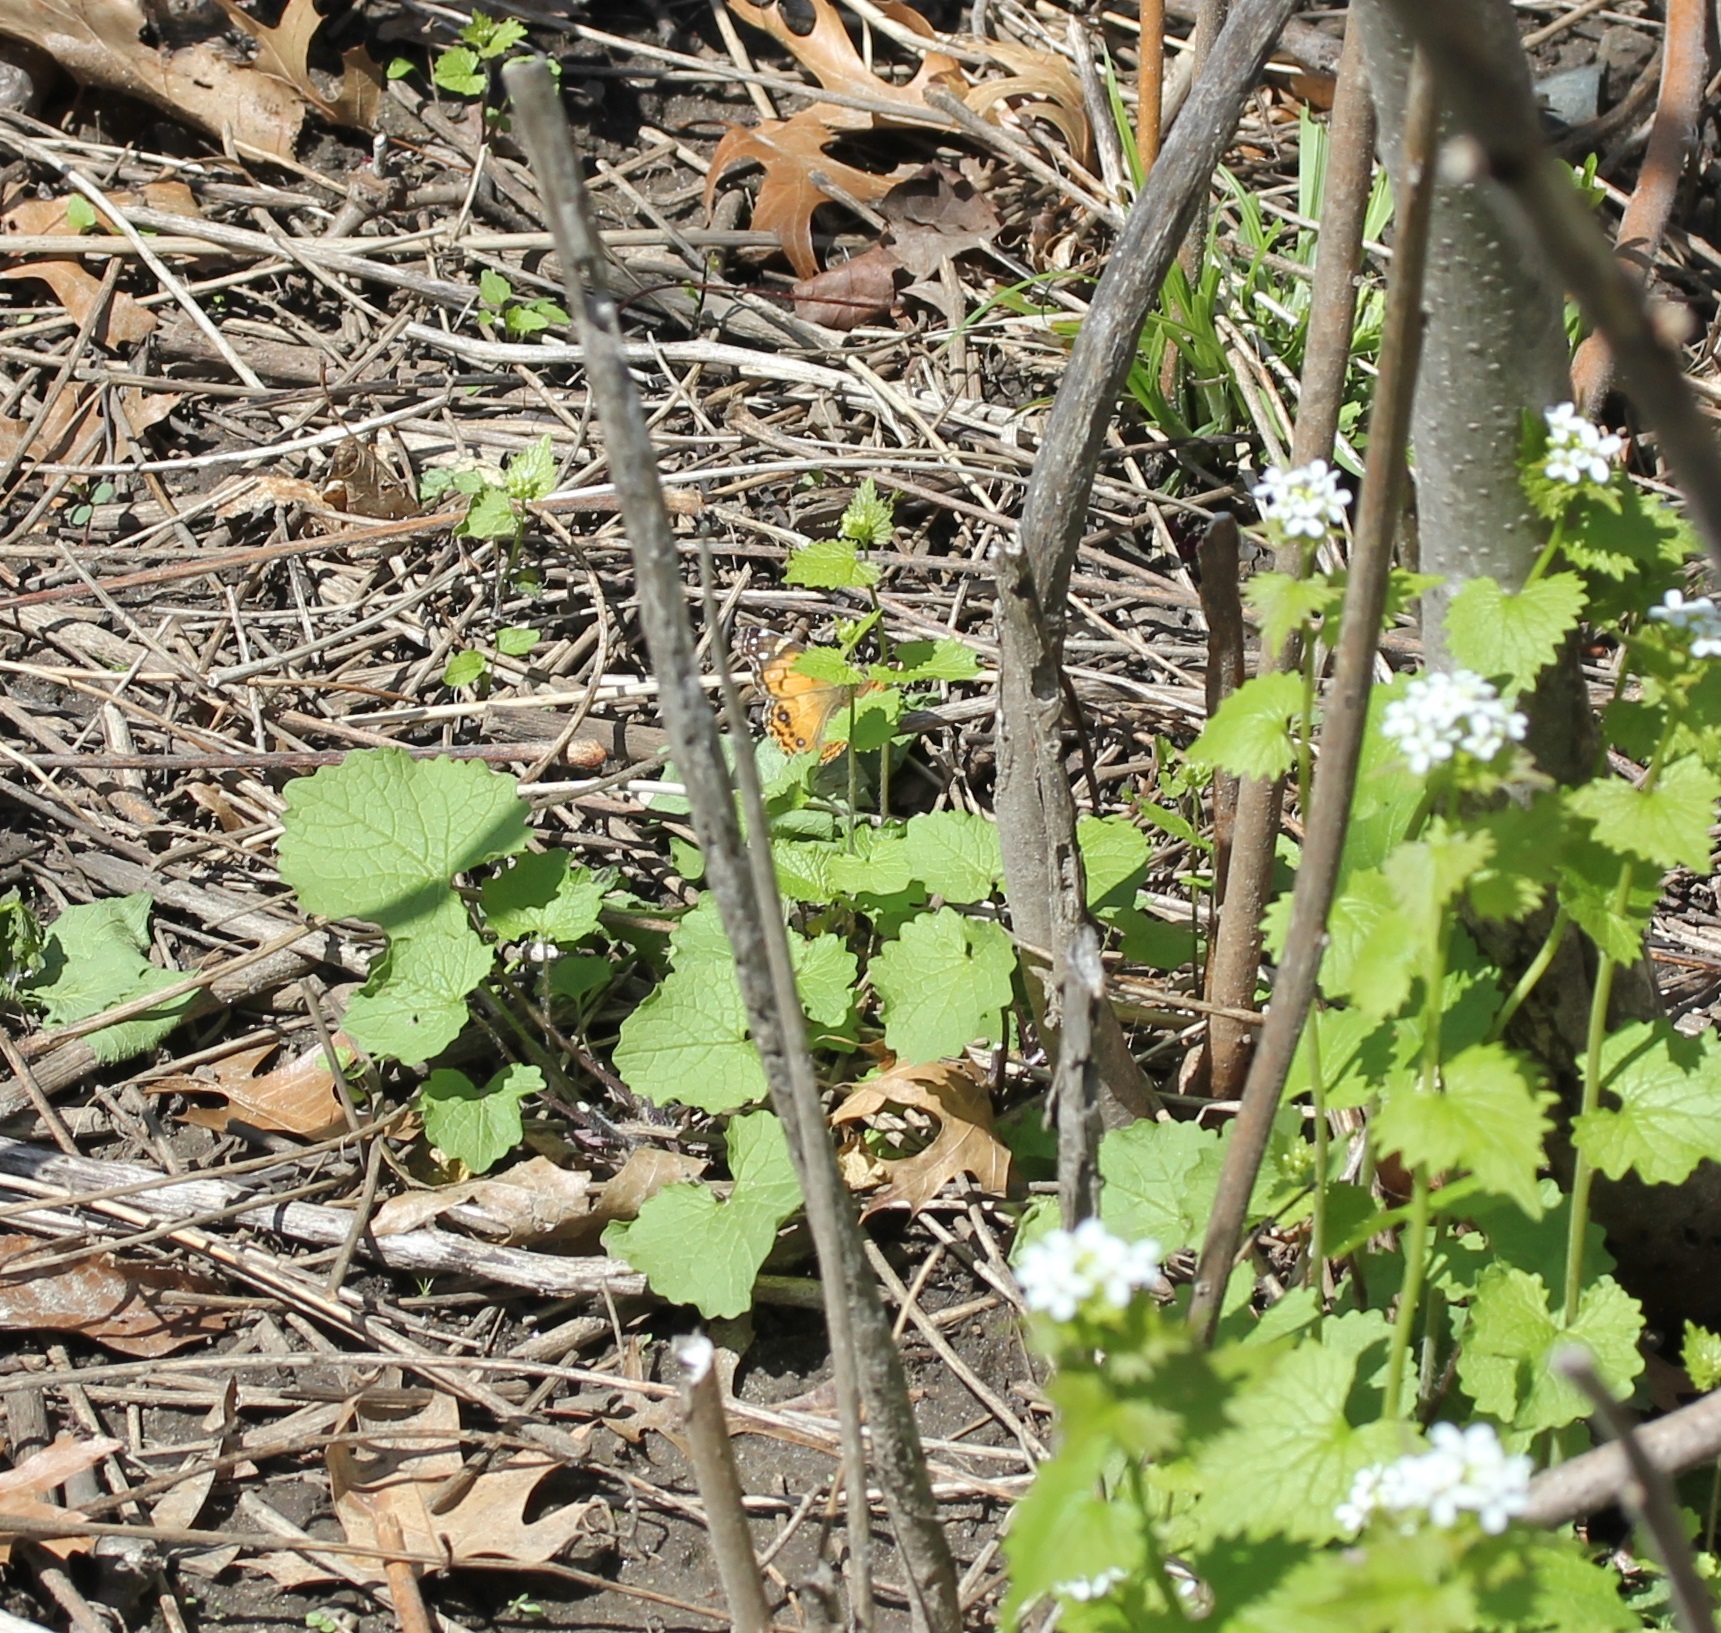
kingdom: Animalia
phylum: Arthropoda
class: Insecta
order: Lepidoptera
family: Nymphalidae
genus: Vanessa
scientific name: Vanessa virginiensis
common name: American lady
